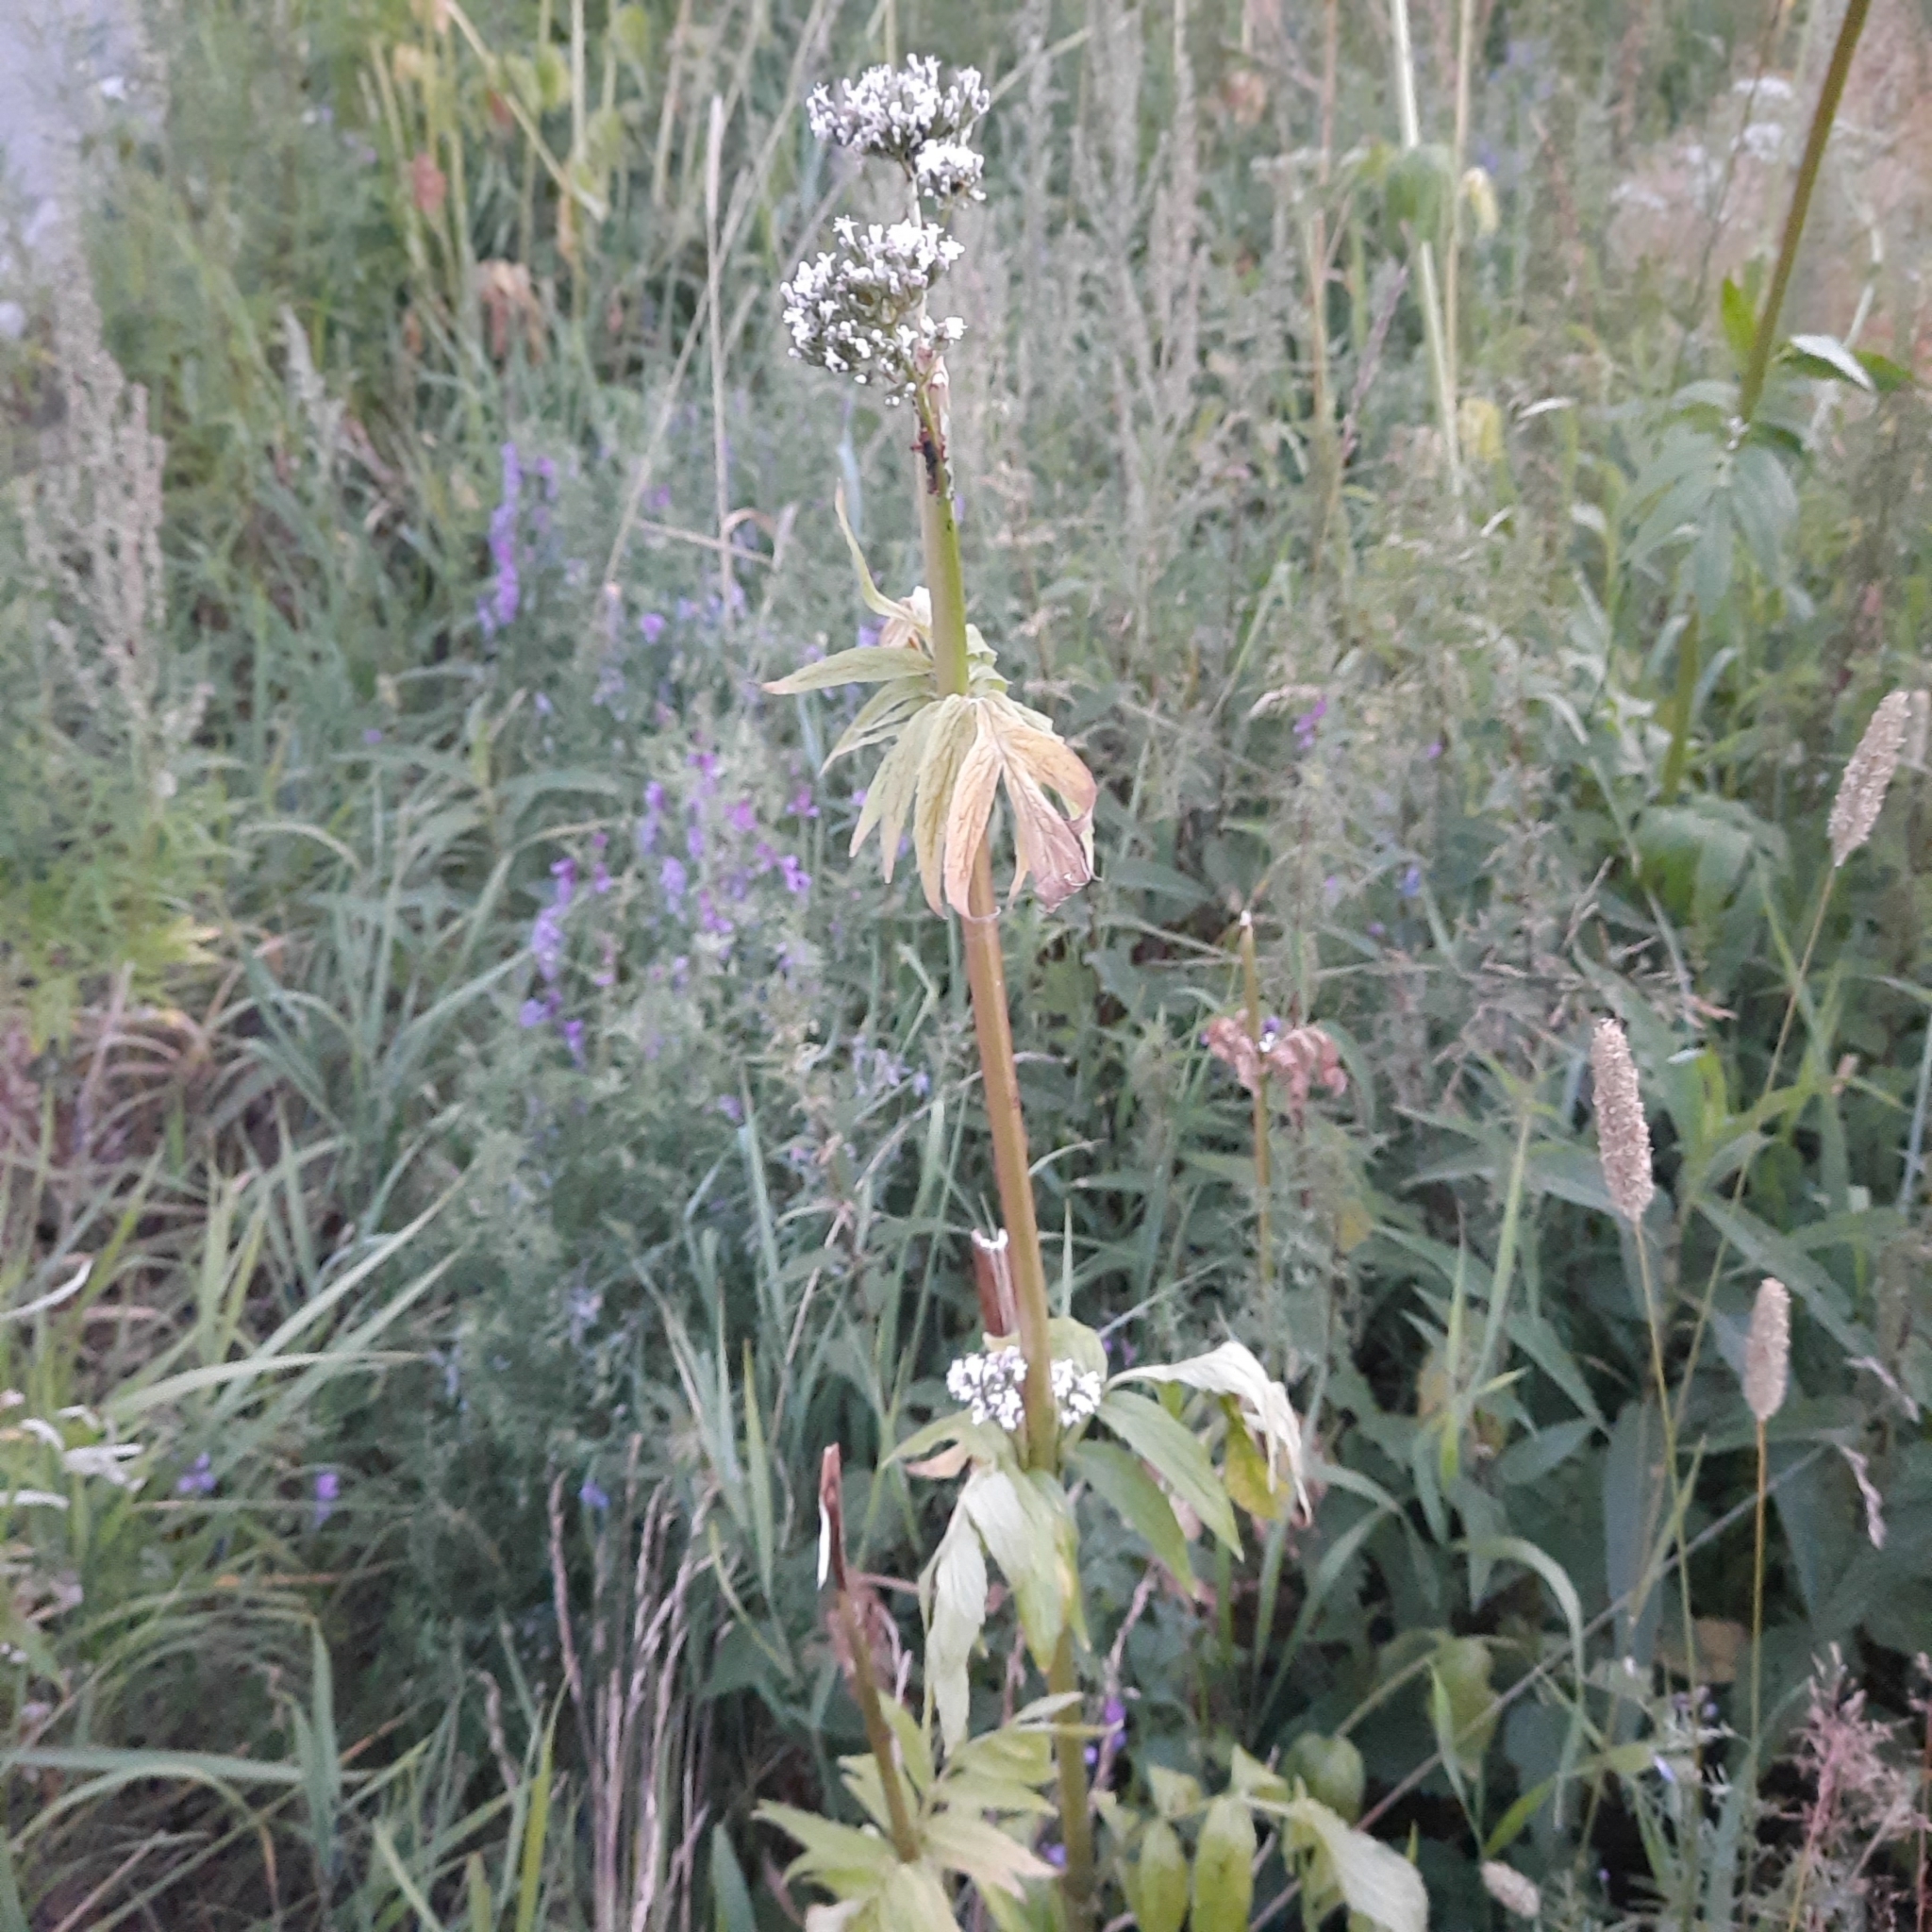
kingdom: Plantae
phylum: Tracheophyta
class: Magnoliopsida
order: Dipsacales
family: Caprifoliaceae
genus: Valeriana
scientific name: Valeriana wolgensis
